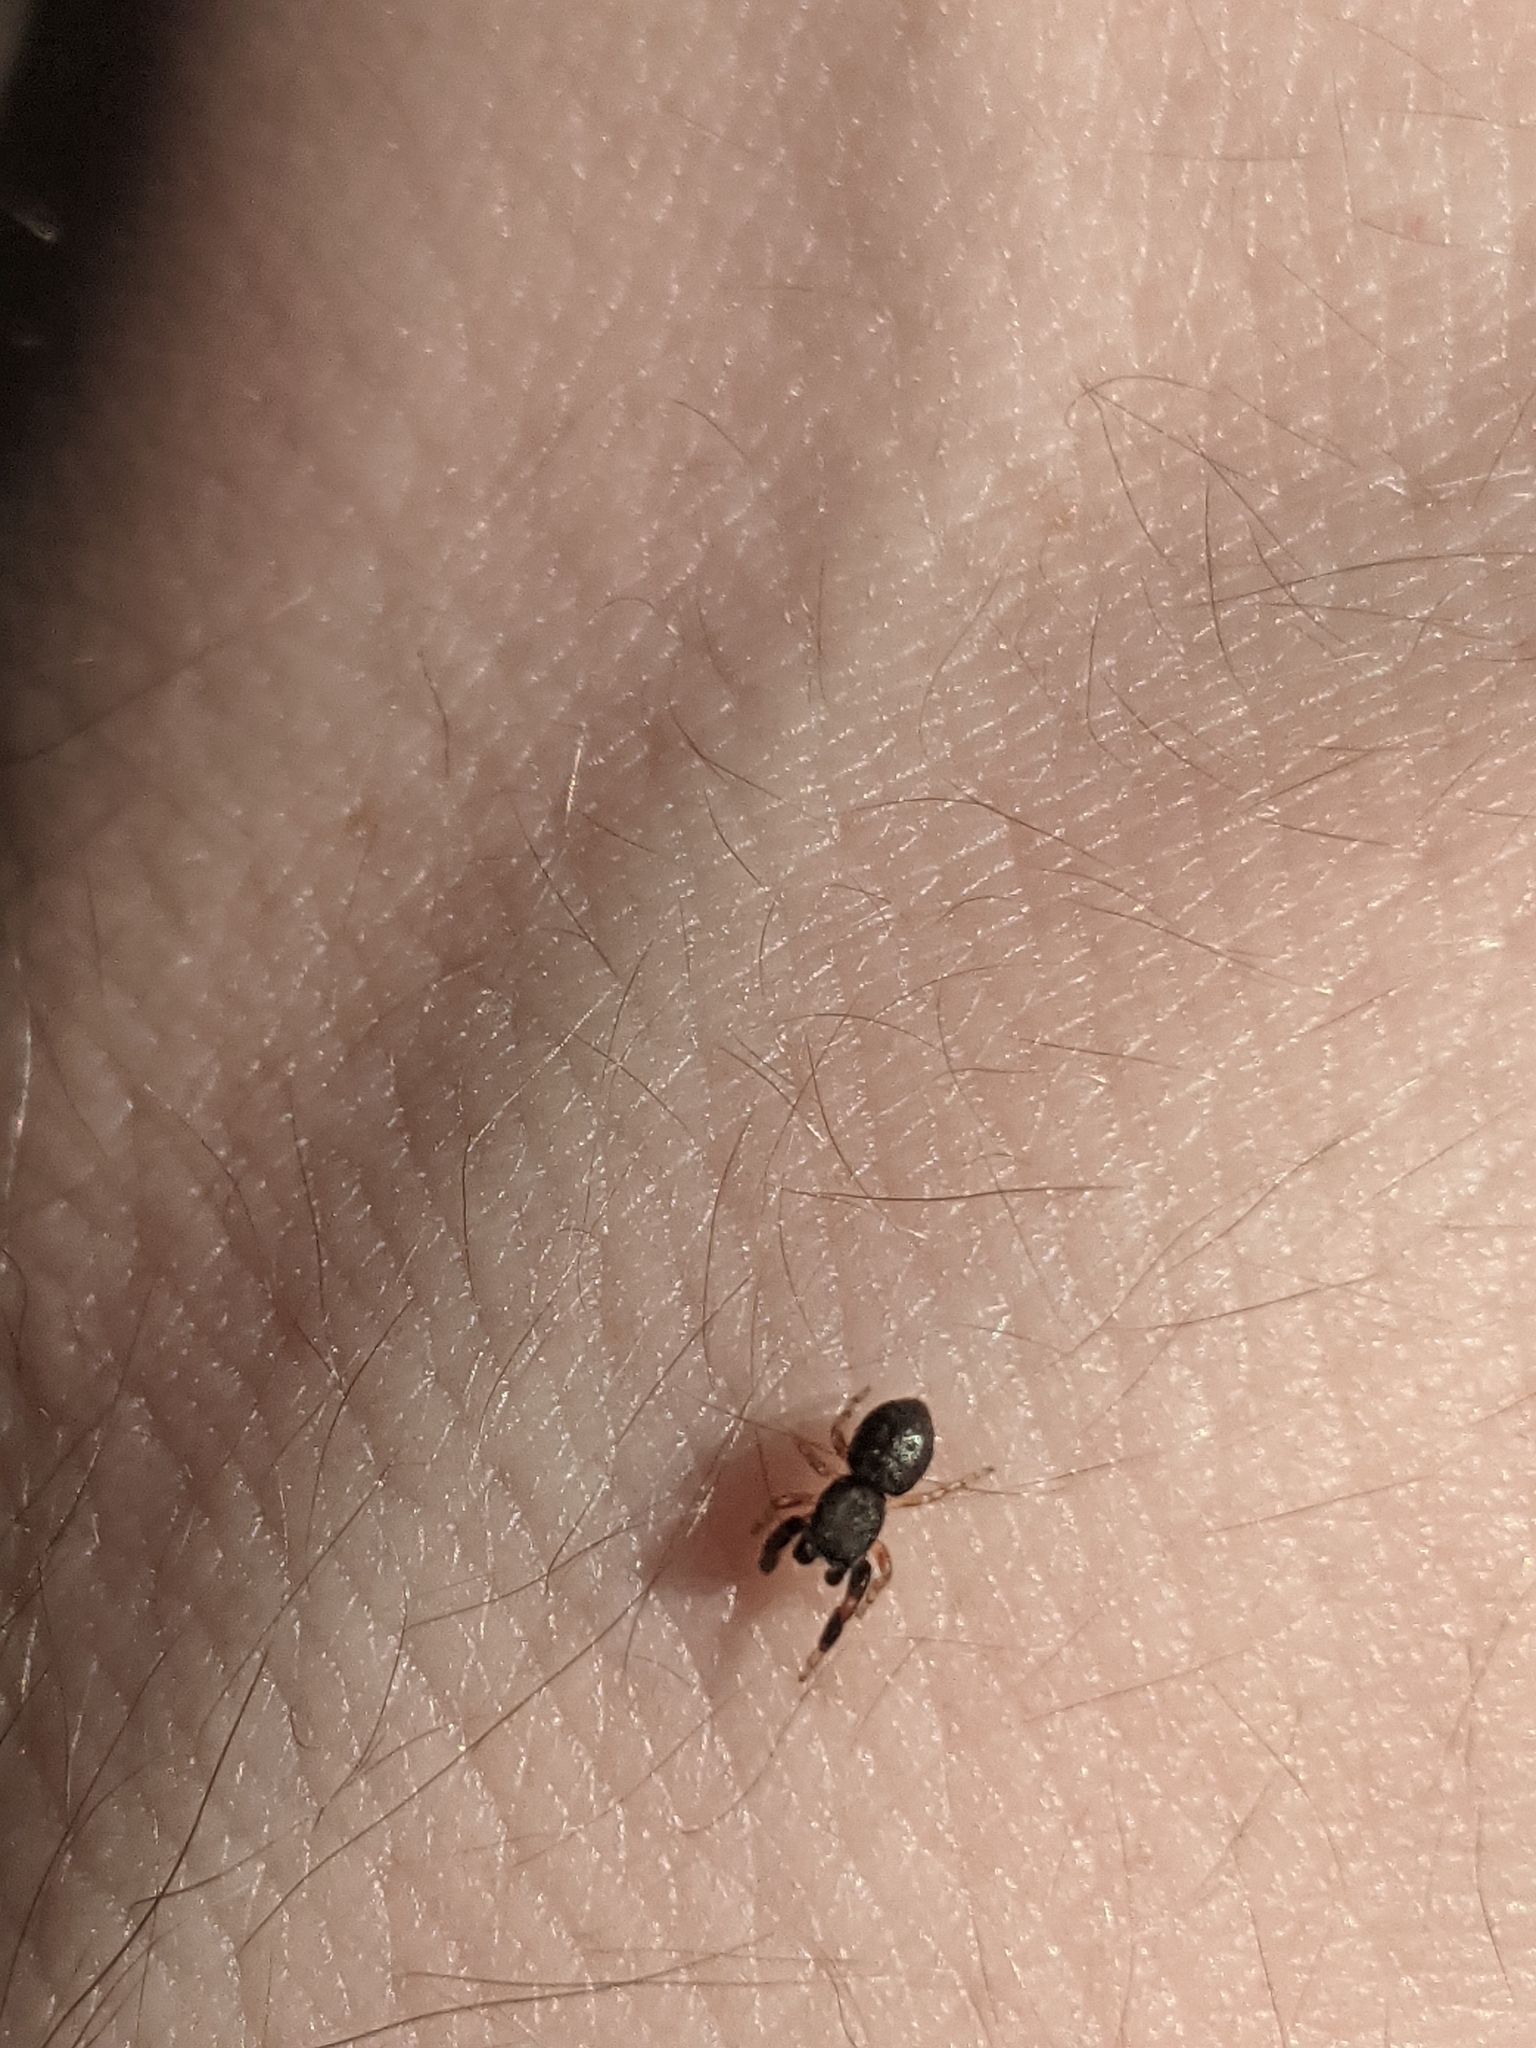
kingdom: Animalia
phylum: Arthropoda
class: Arachnida
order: Araneae
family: Salticidae
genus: Ballus
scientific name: Ballus chalybeius
